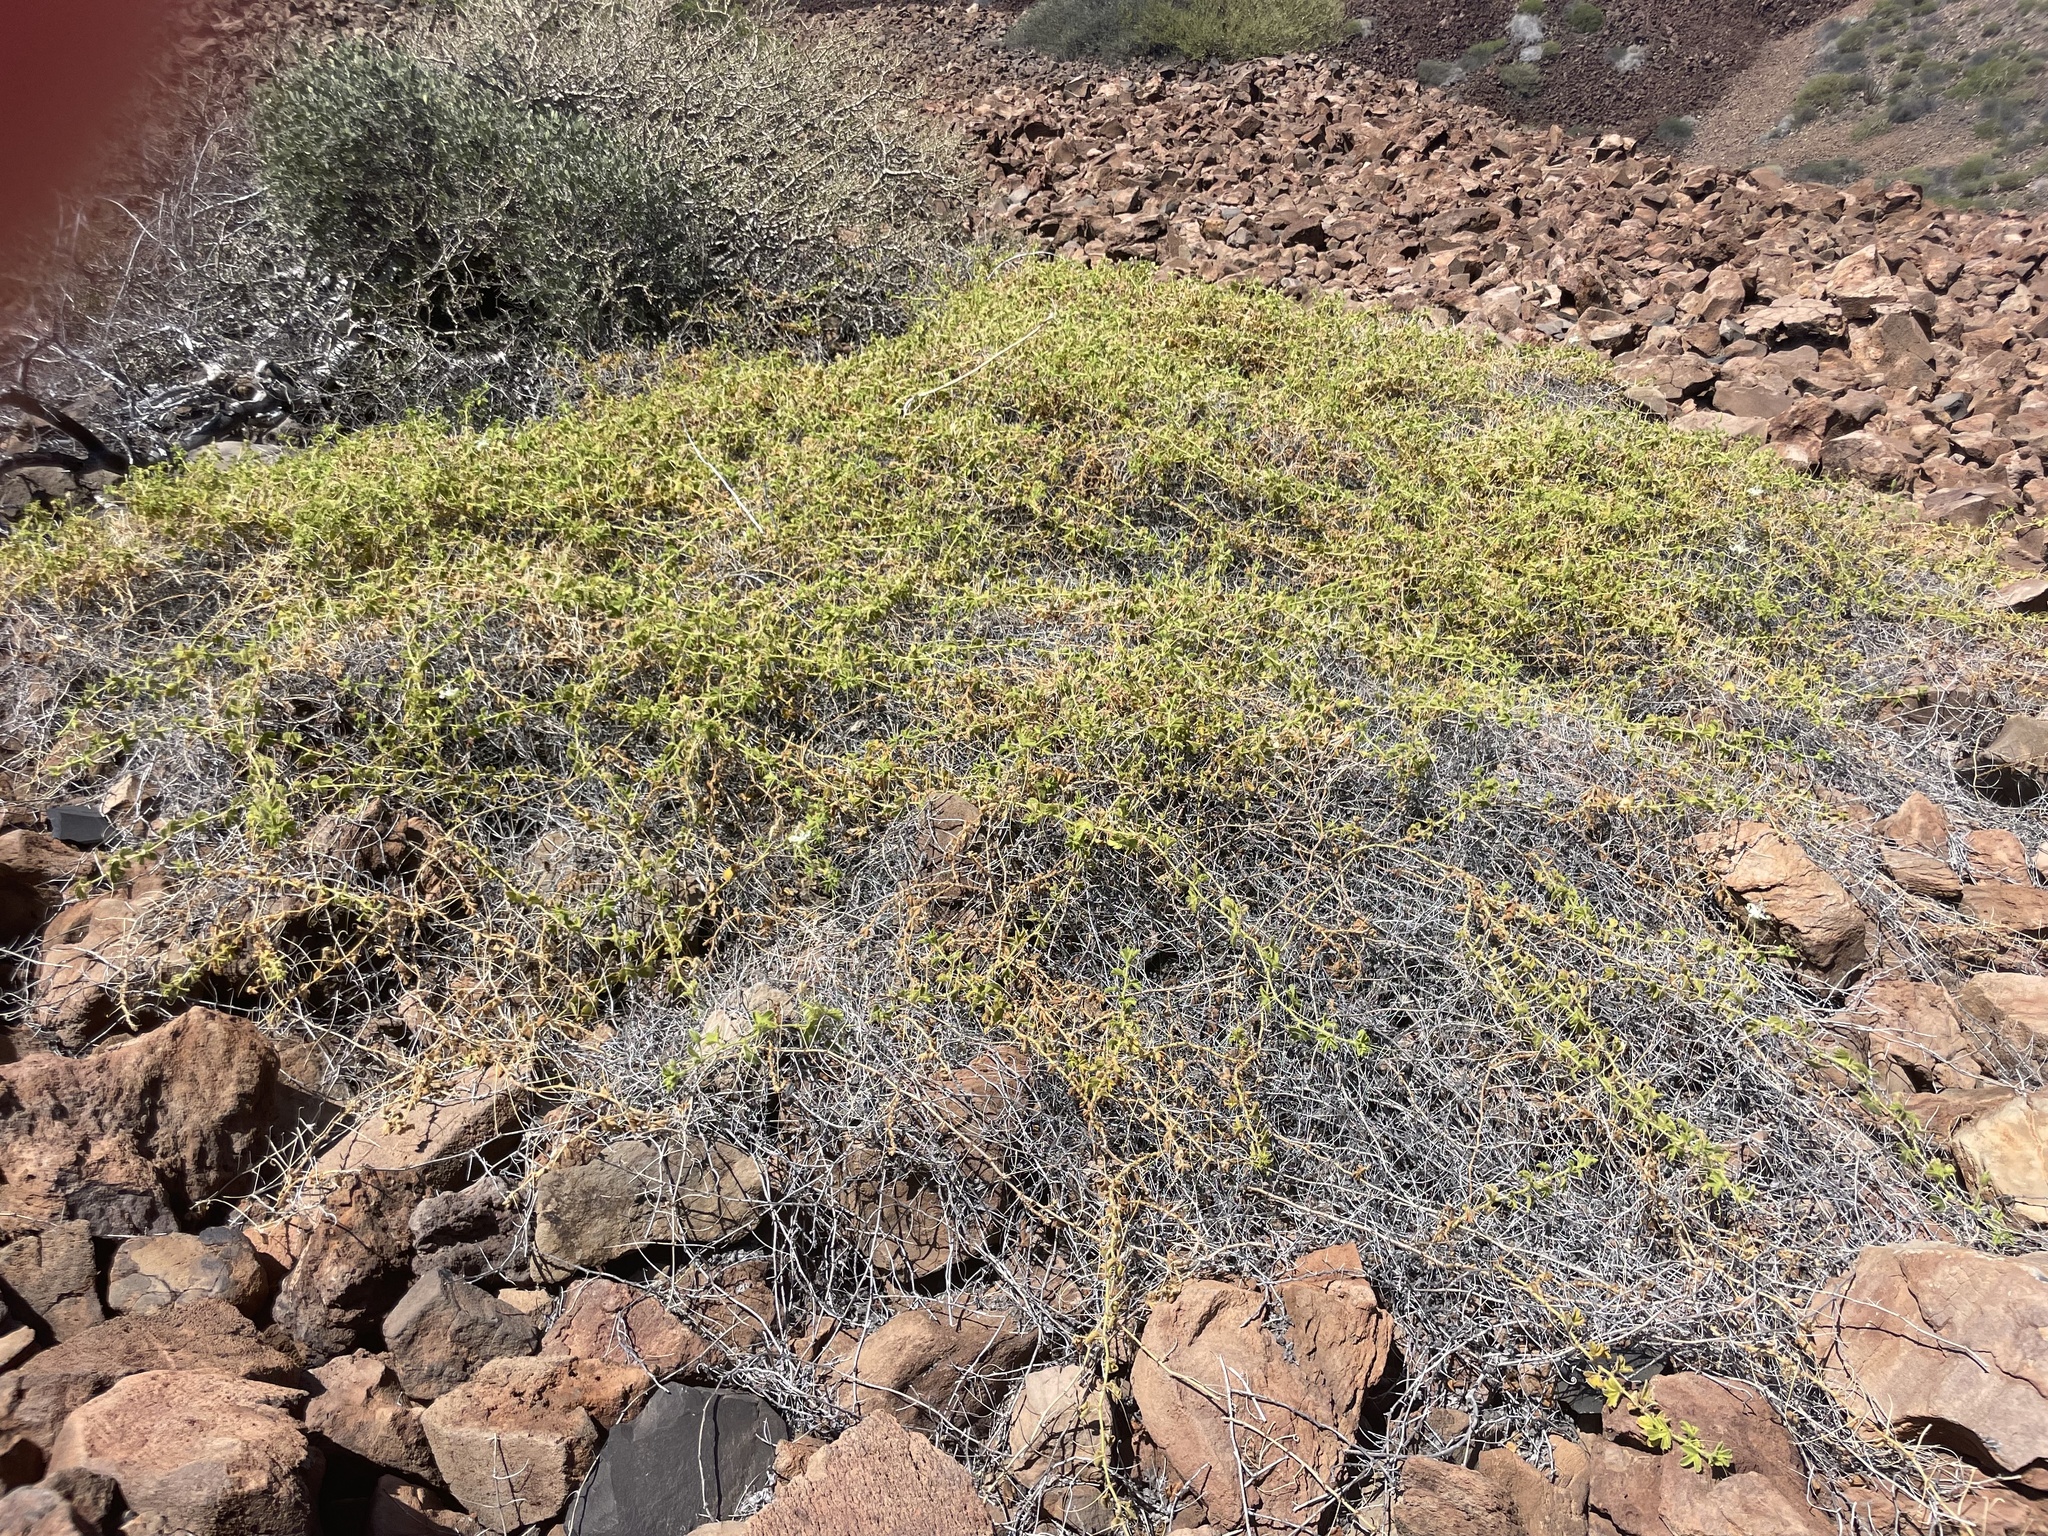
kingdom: Plantae
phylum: Tracheophyta
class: Magnoliopsida
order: Malpighiales
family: Passifloraceae
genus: Passiflora
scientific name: Passiflora palmeri
